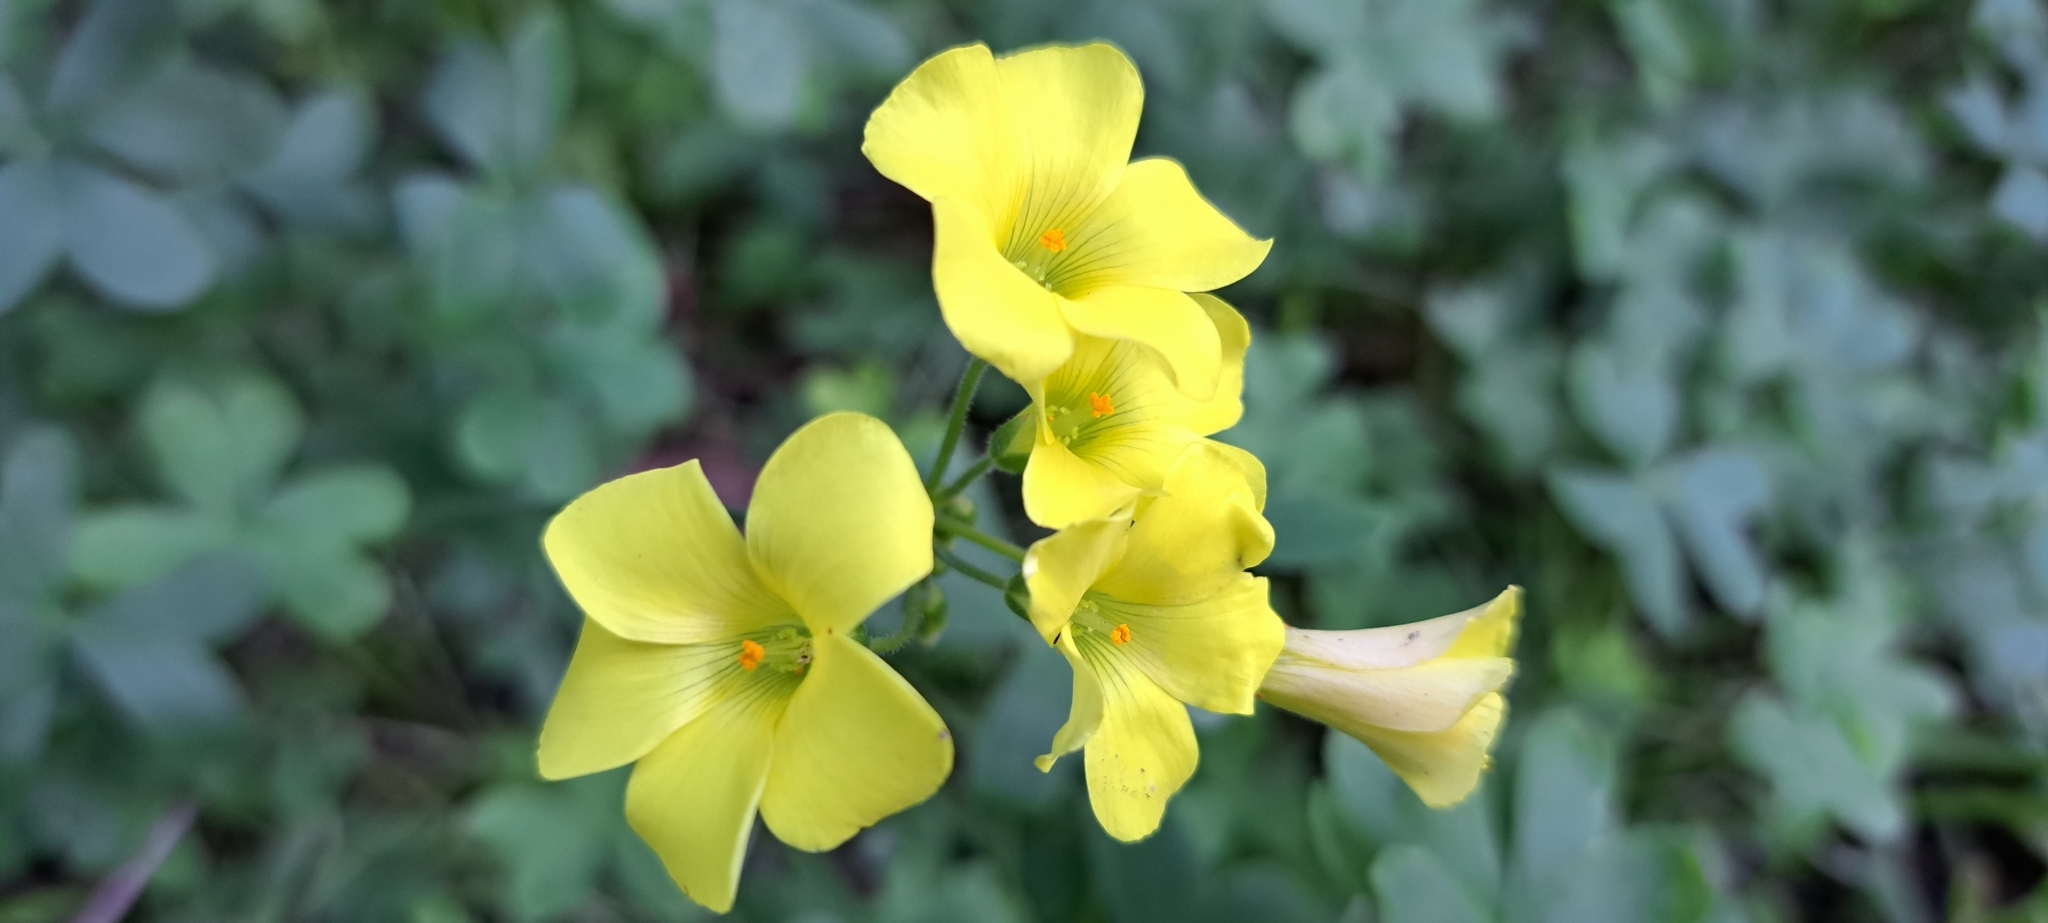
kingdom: Plantae
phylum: Tracheophyta
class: Magnoliopsida
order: Oxalidales
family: Oxalidaceae
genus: Oxalis
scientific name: Oxalis pes-caprae
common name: Bermuda-buttercup
